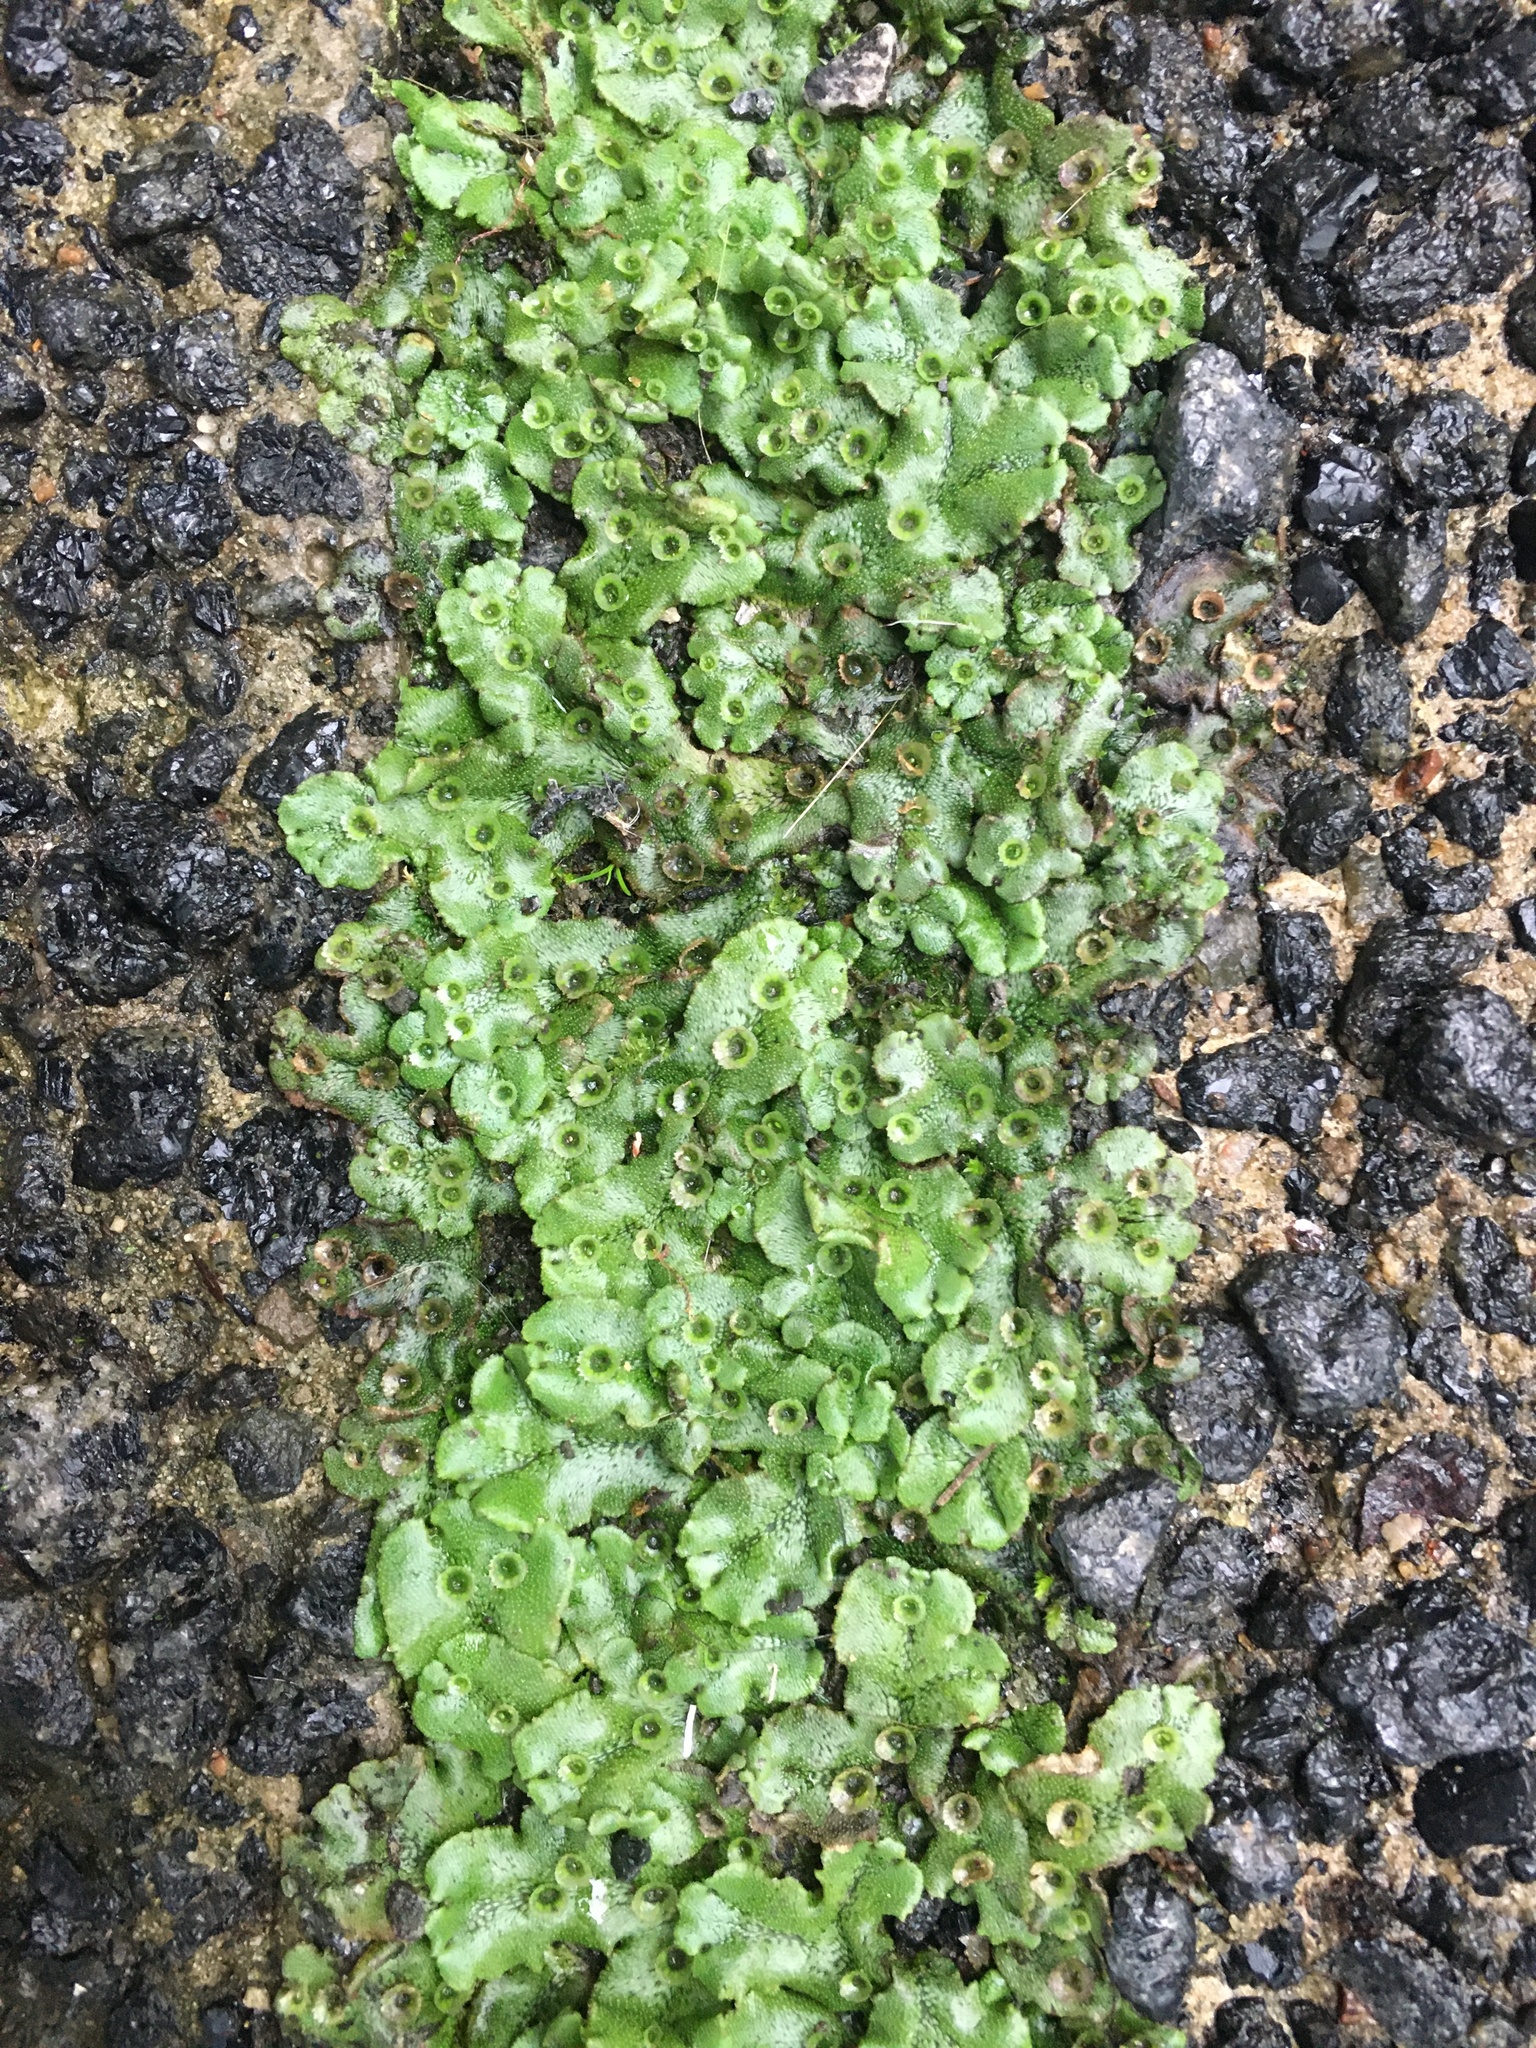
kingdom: Plantae
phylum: Marchantiophyta
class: Marchantiopsida
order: Marchantiales
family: Marchantiaceae
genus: Marchantia
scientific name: Marchantia polymorpha
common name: Common liverwort
